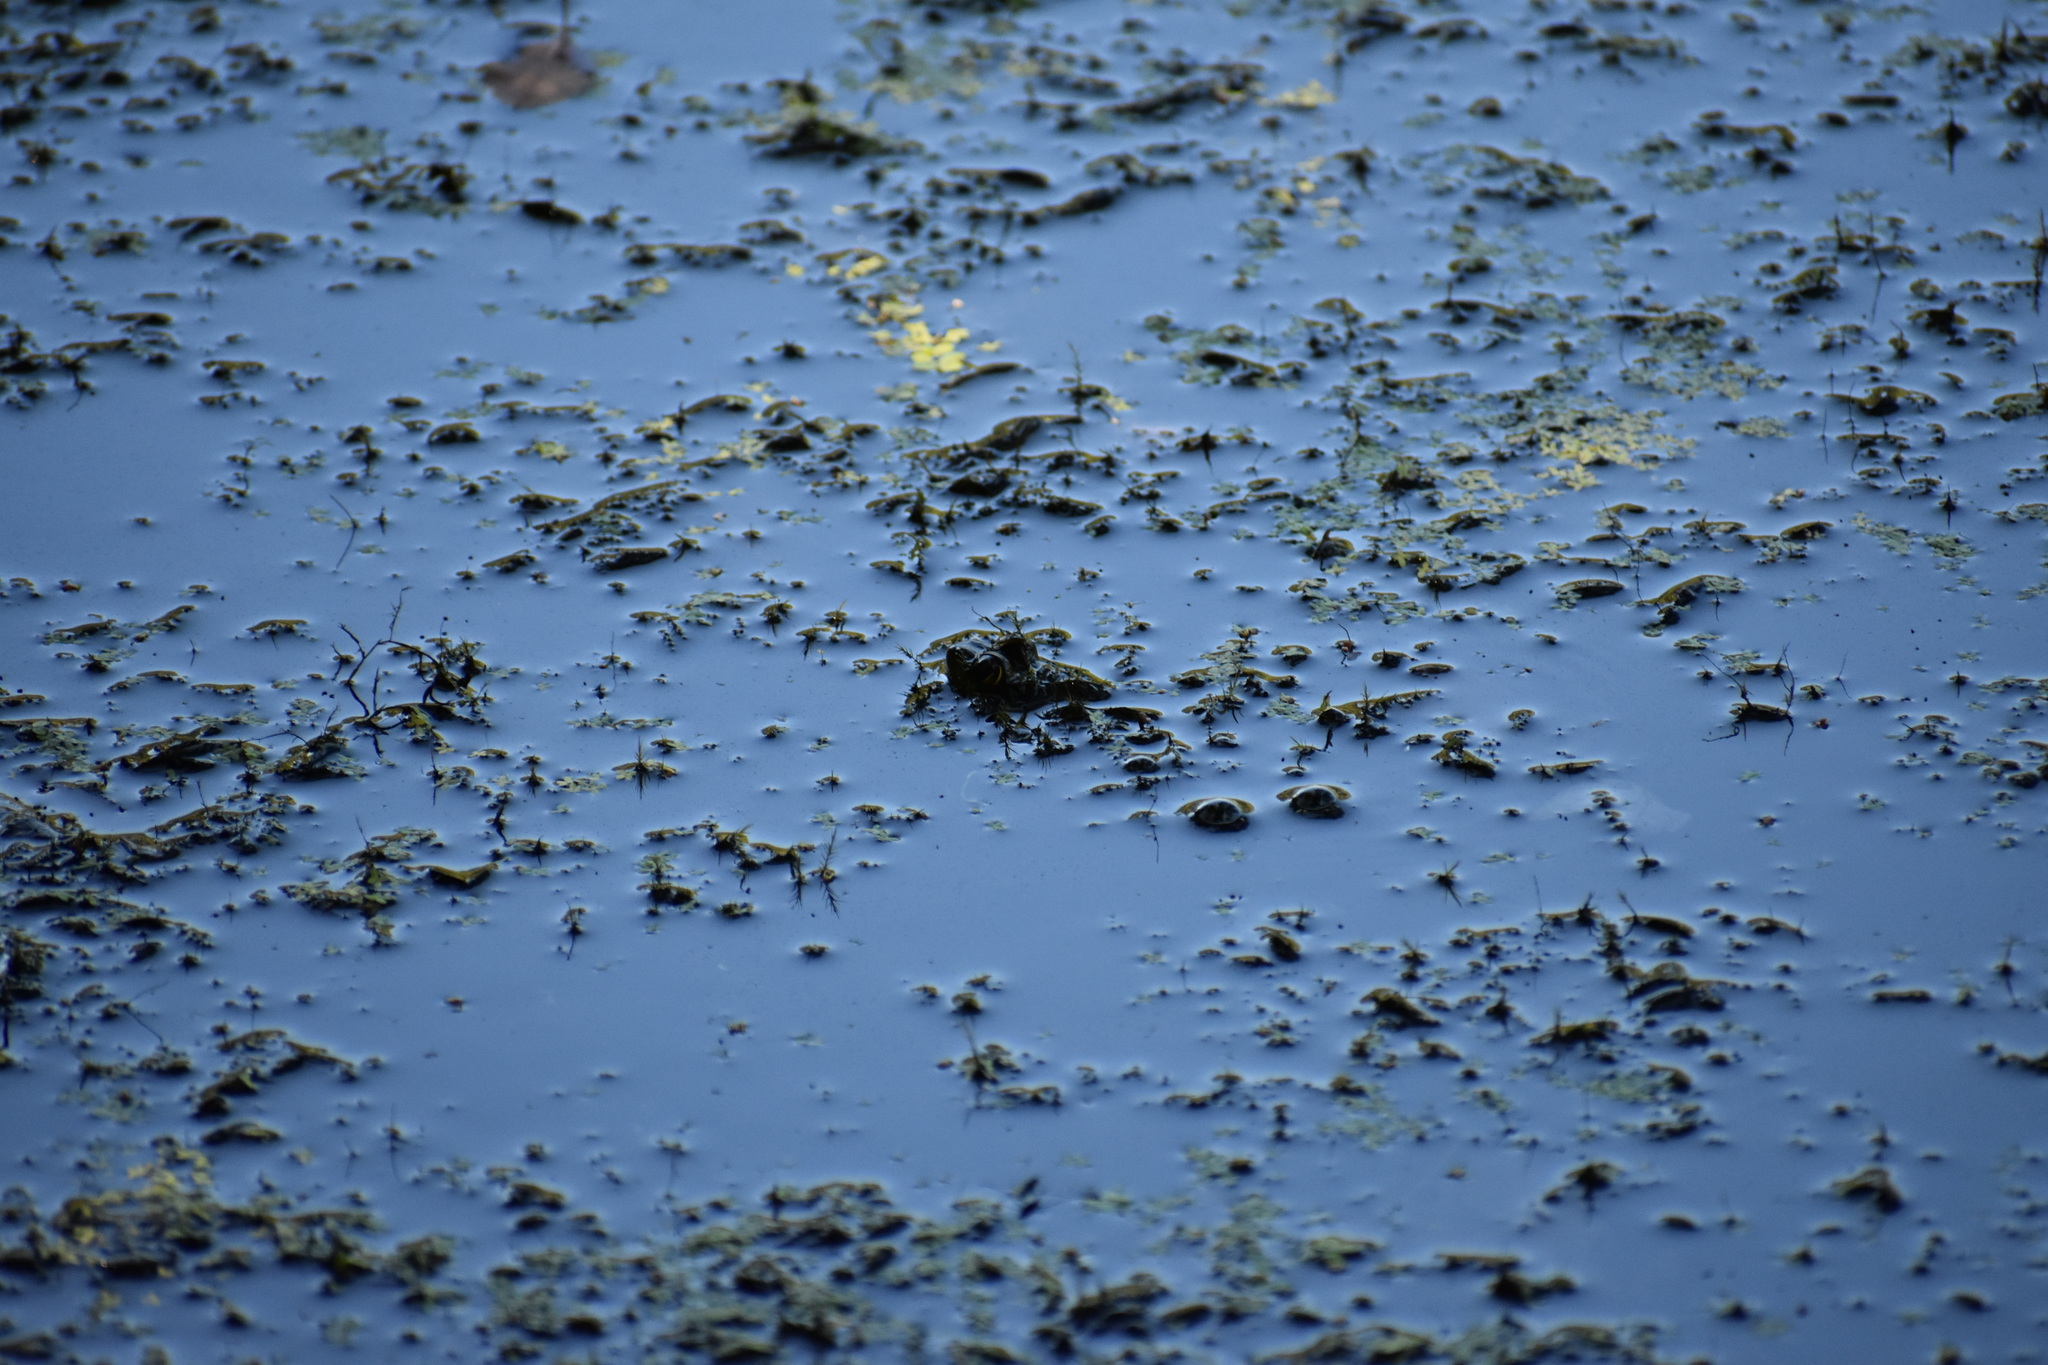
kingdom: Animalia
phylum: Chordata
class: Amphibia
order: Anura
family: Ranidae
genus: Lithobates
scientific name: Lithobates
